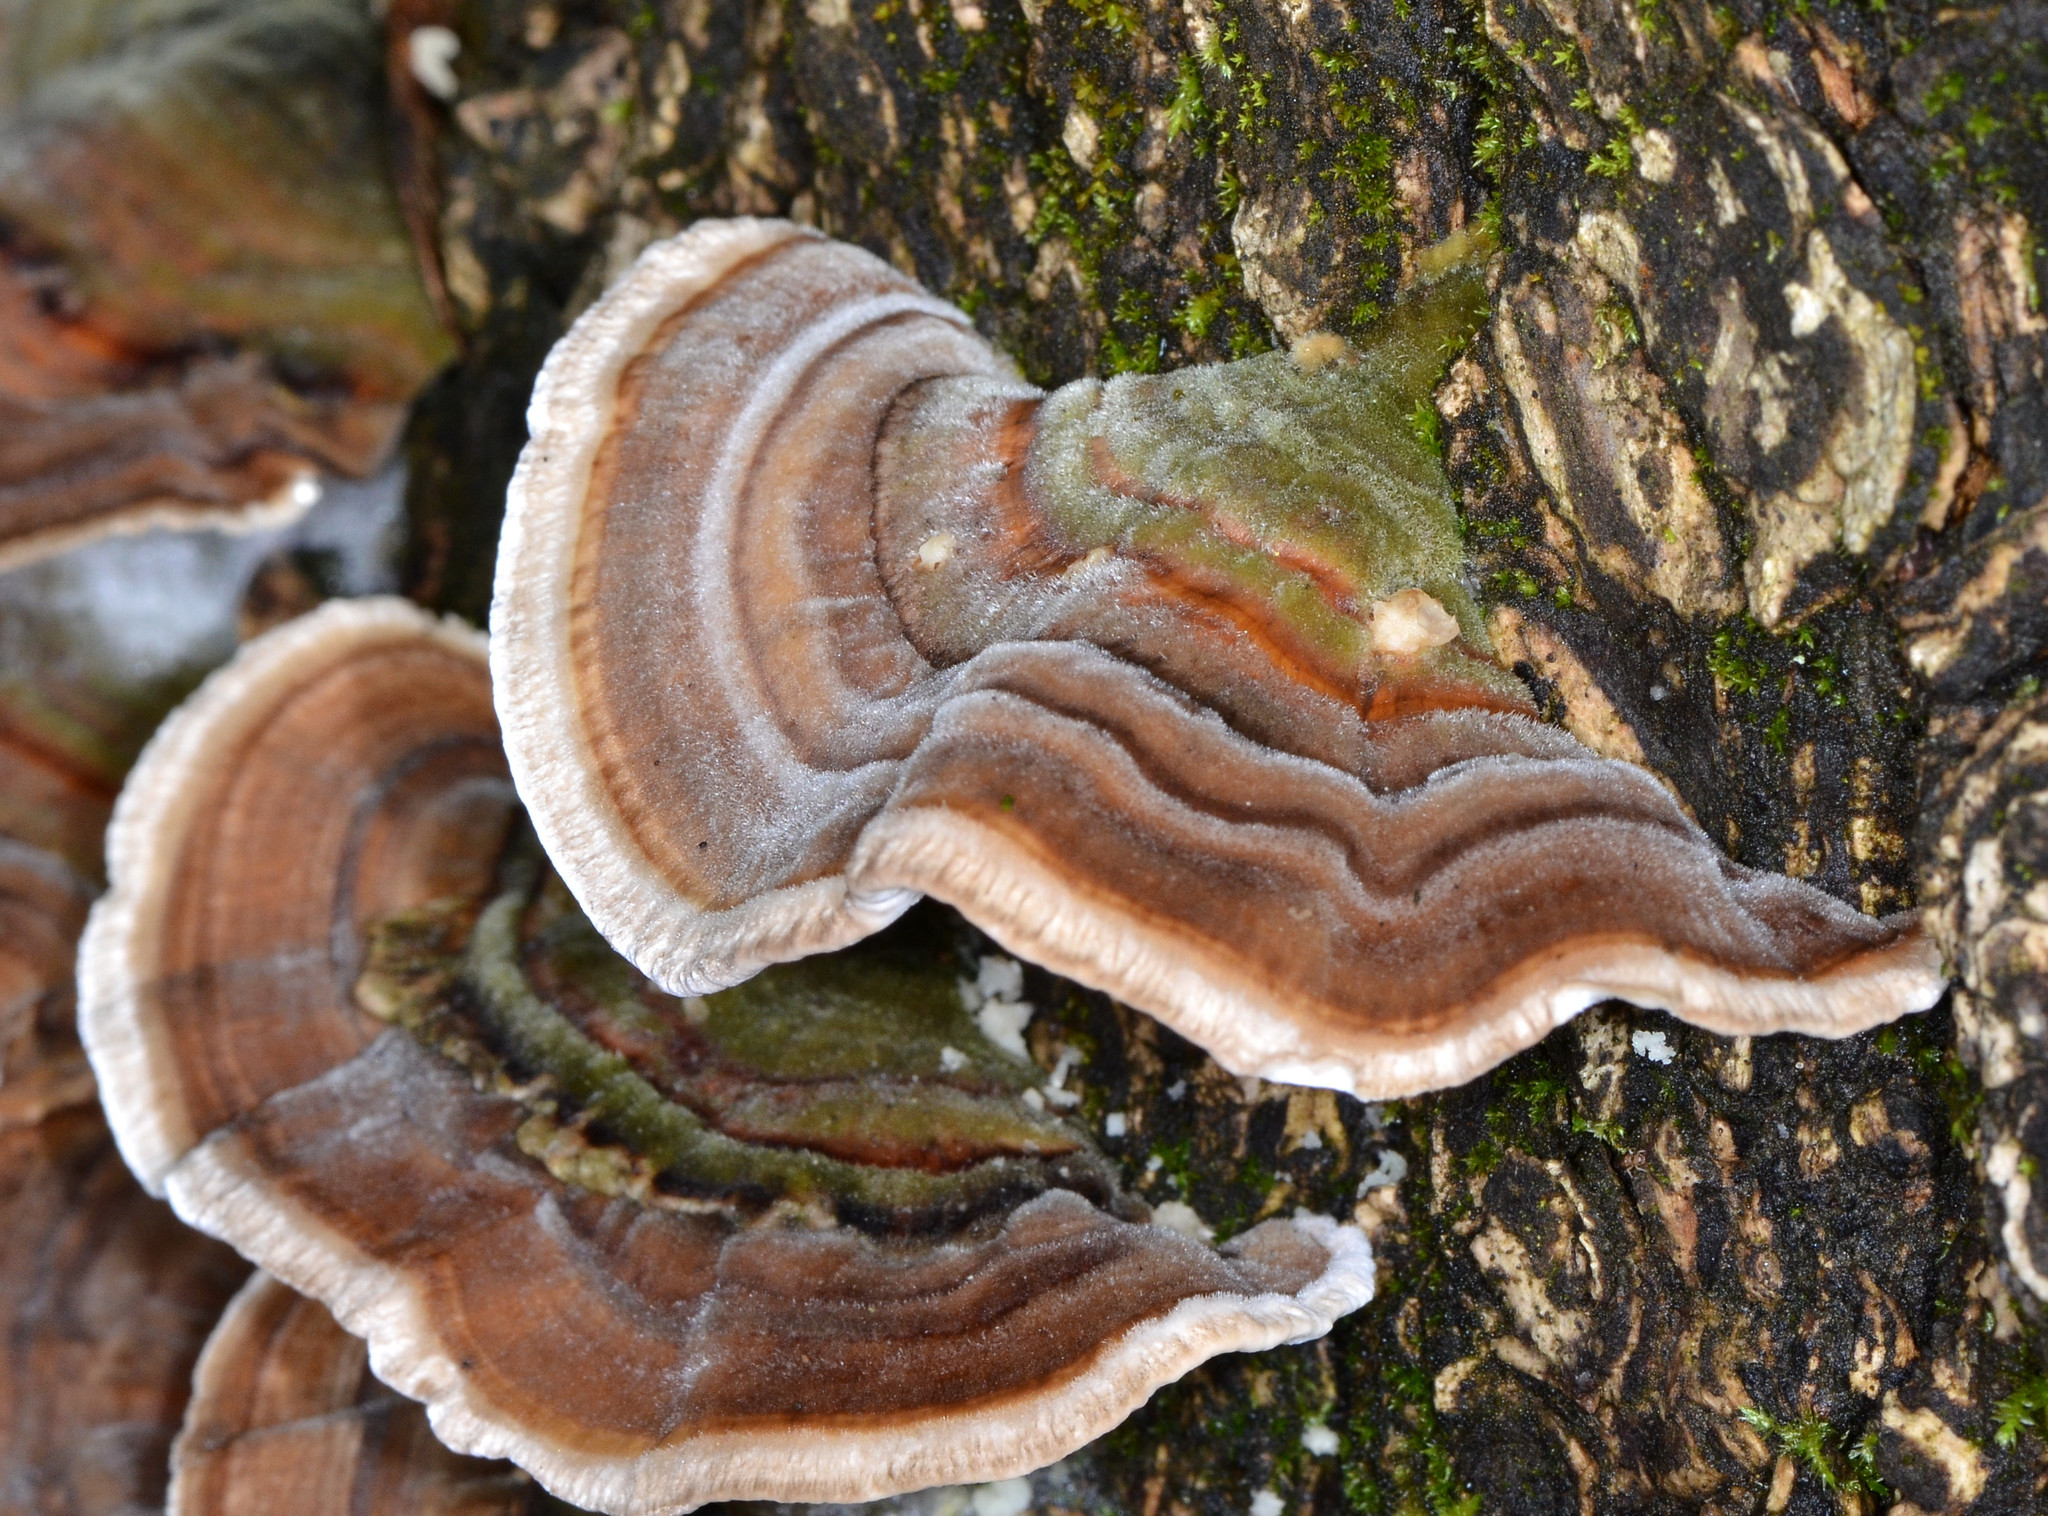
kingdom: Fungi
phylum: Basidiomycota
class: Agaricomycetes
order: Polyporales
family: Polyporaceae
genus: Trametes
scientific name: Trametes versicolor
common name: Turkeytail
